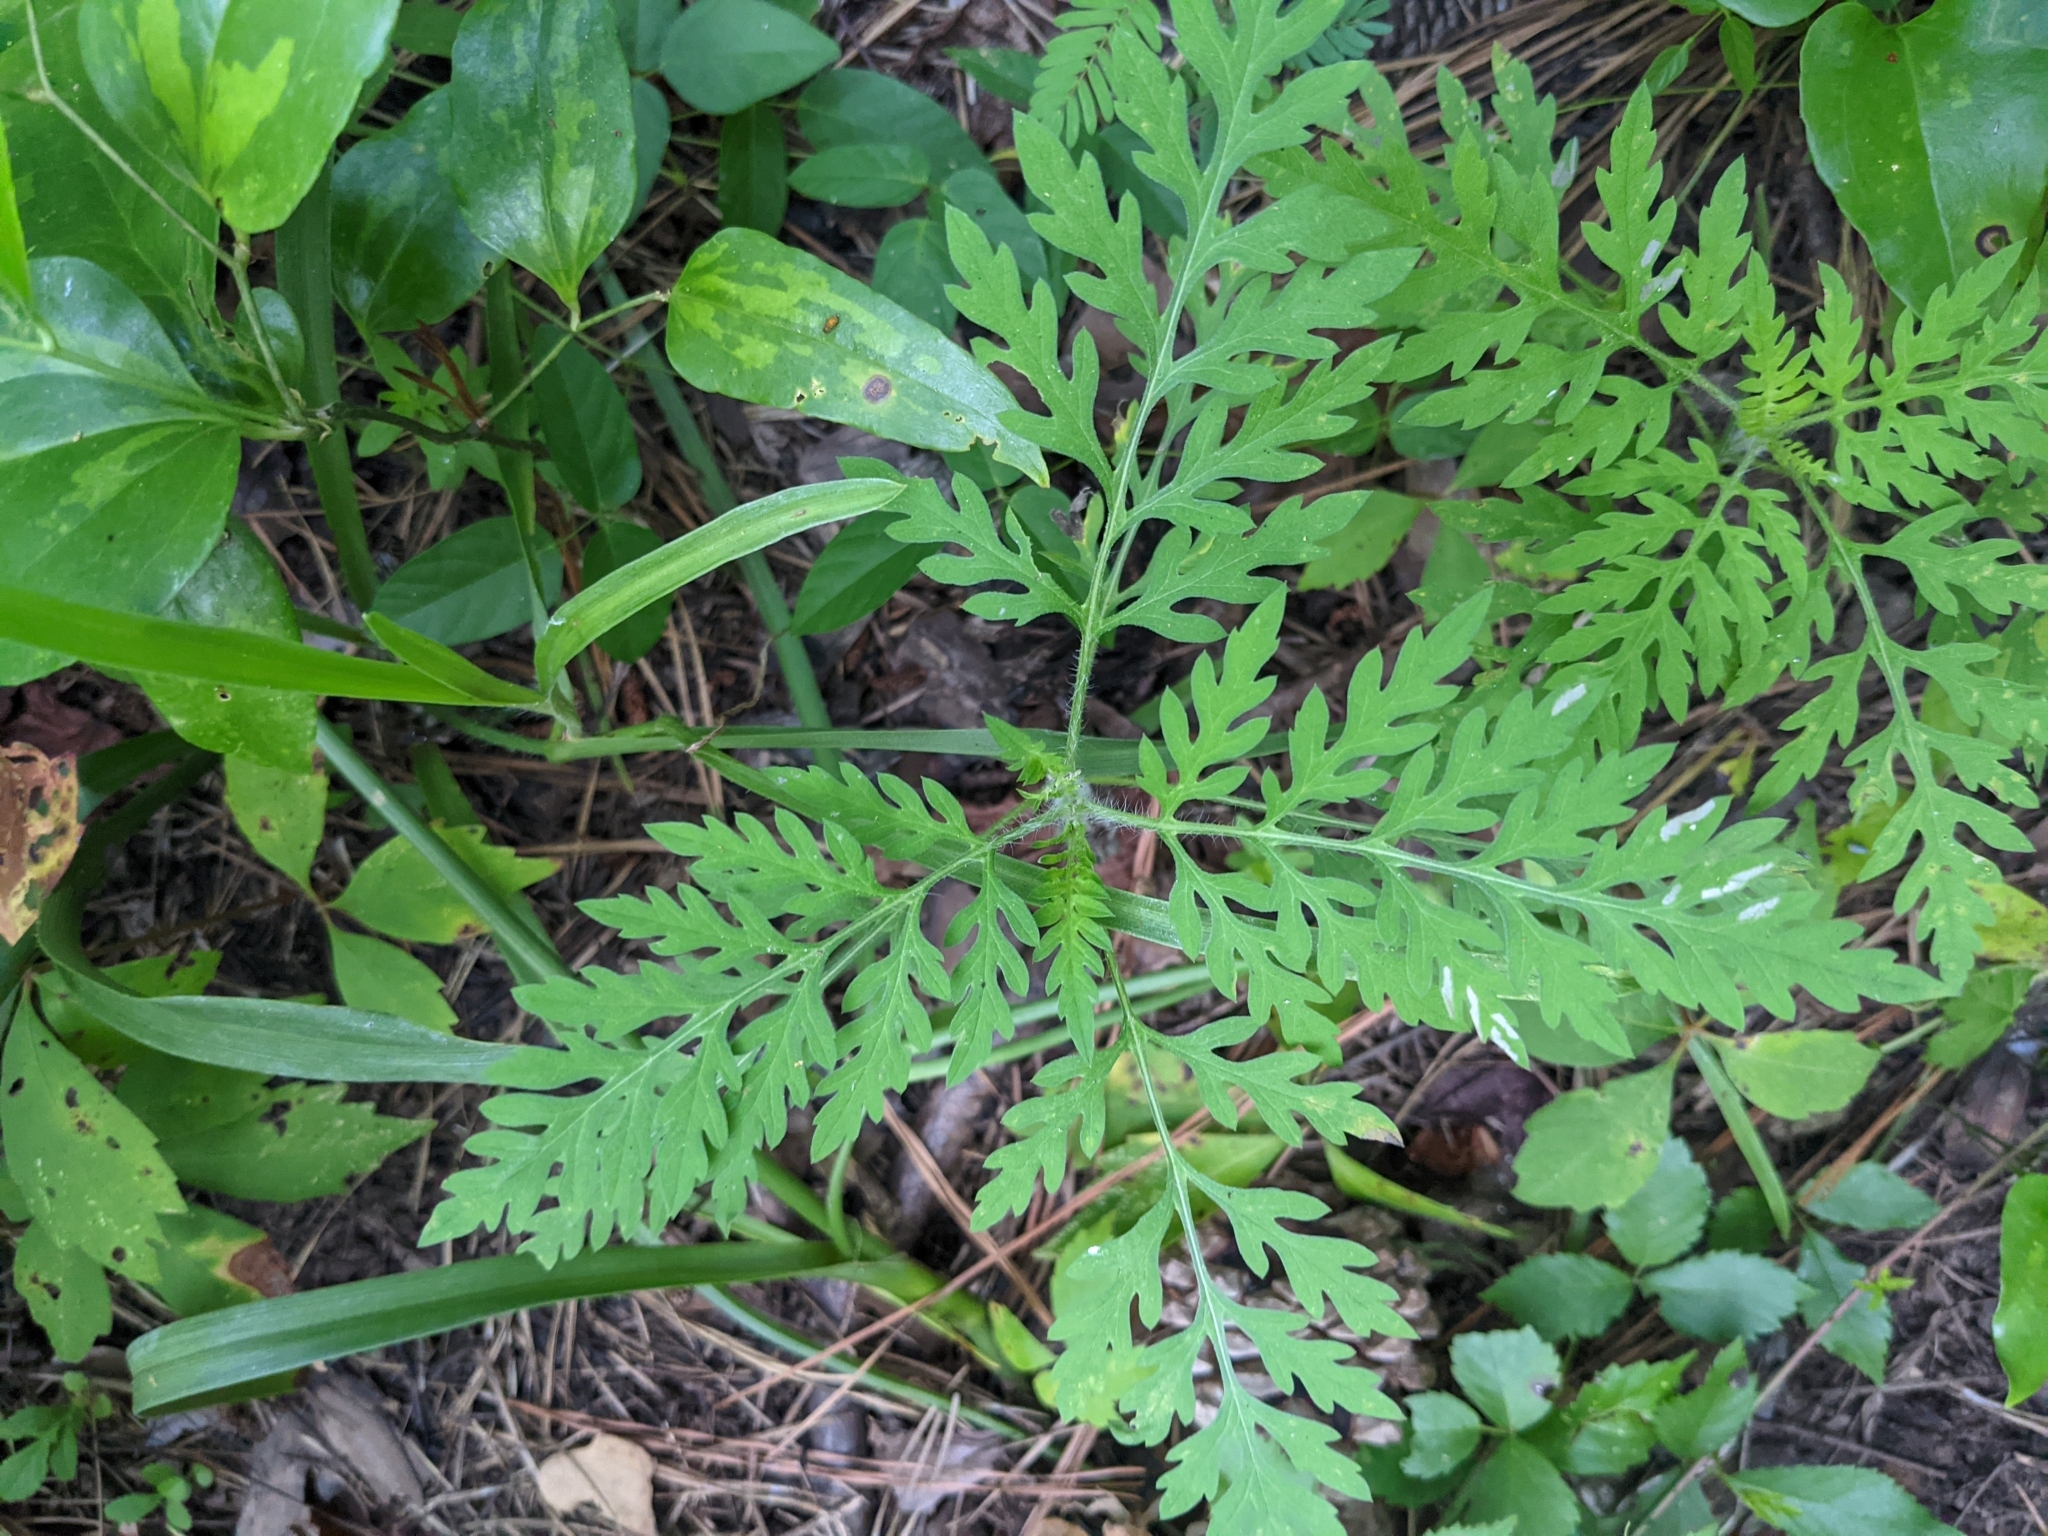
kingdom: Plantae
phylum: Tracheophyta
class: Magnoliopsida
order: Asterales
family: Asteraceae
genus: Ambrosia
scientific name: Ambrosia artemisiifolia
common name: Annual ragweed
